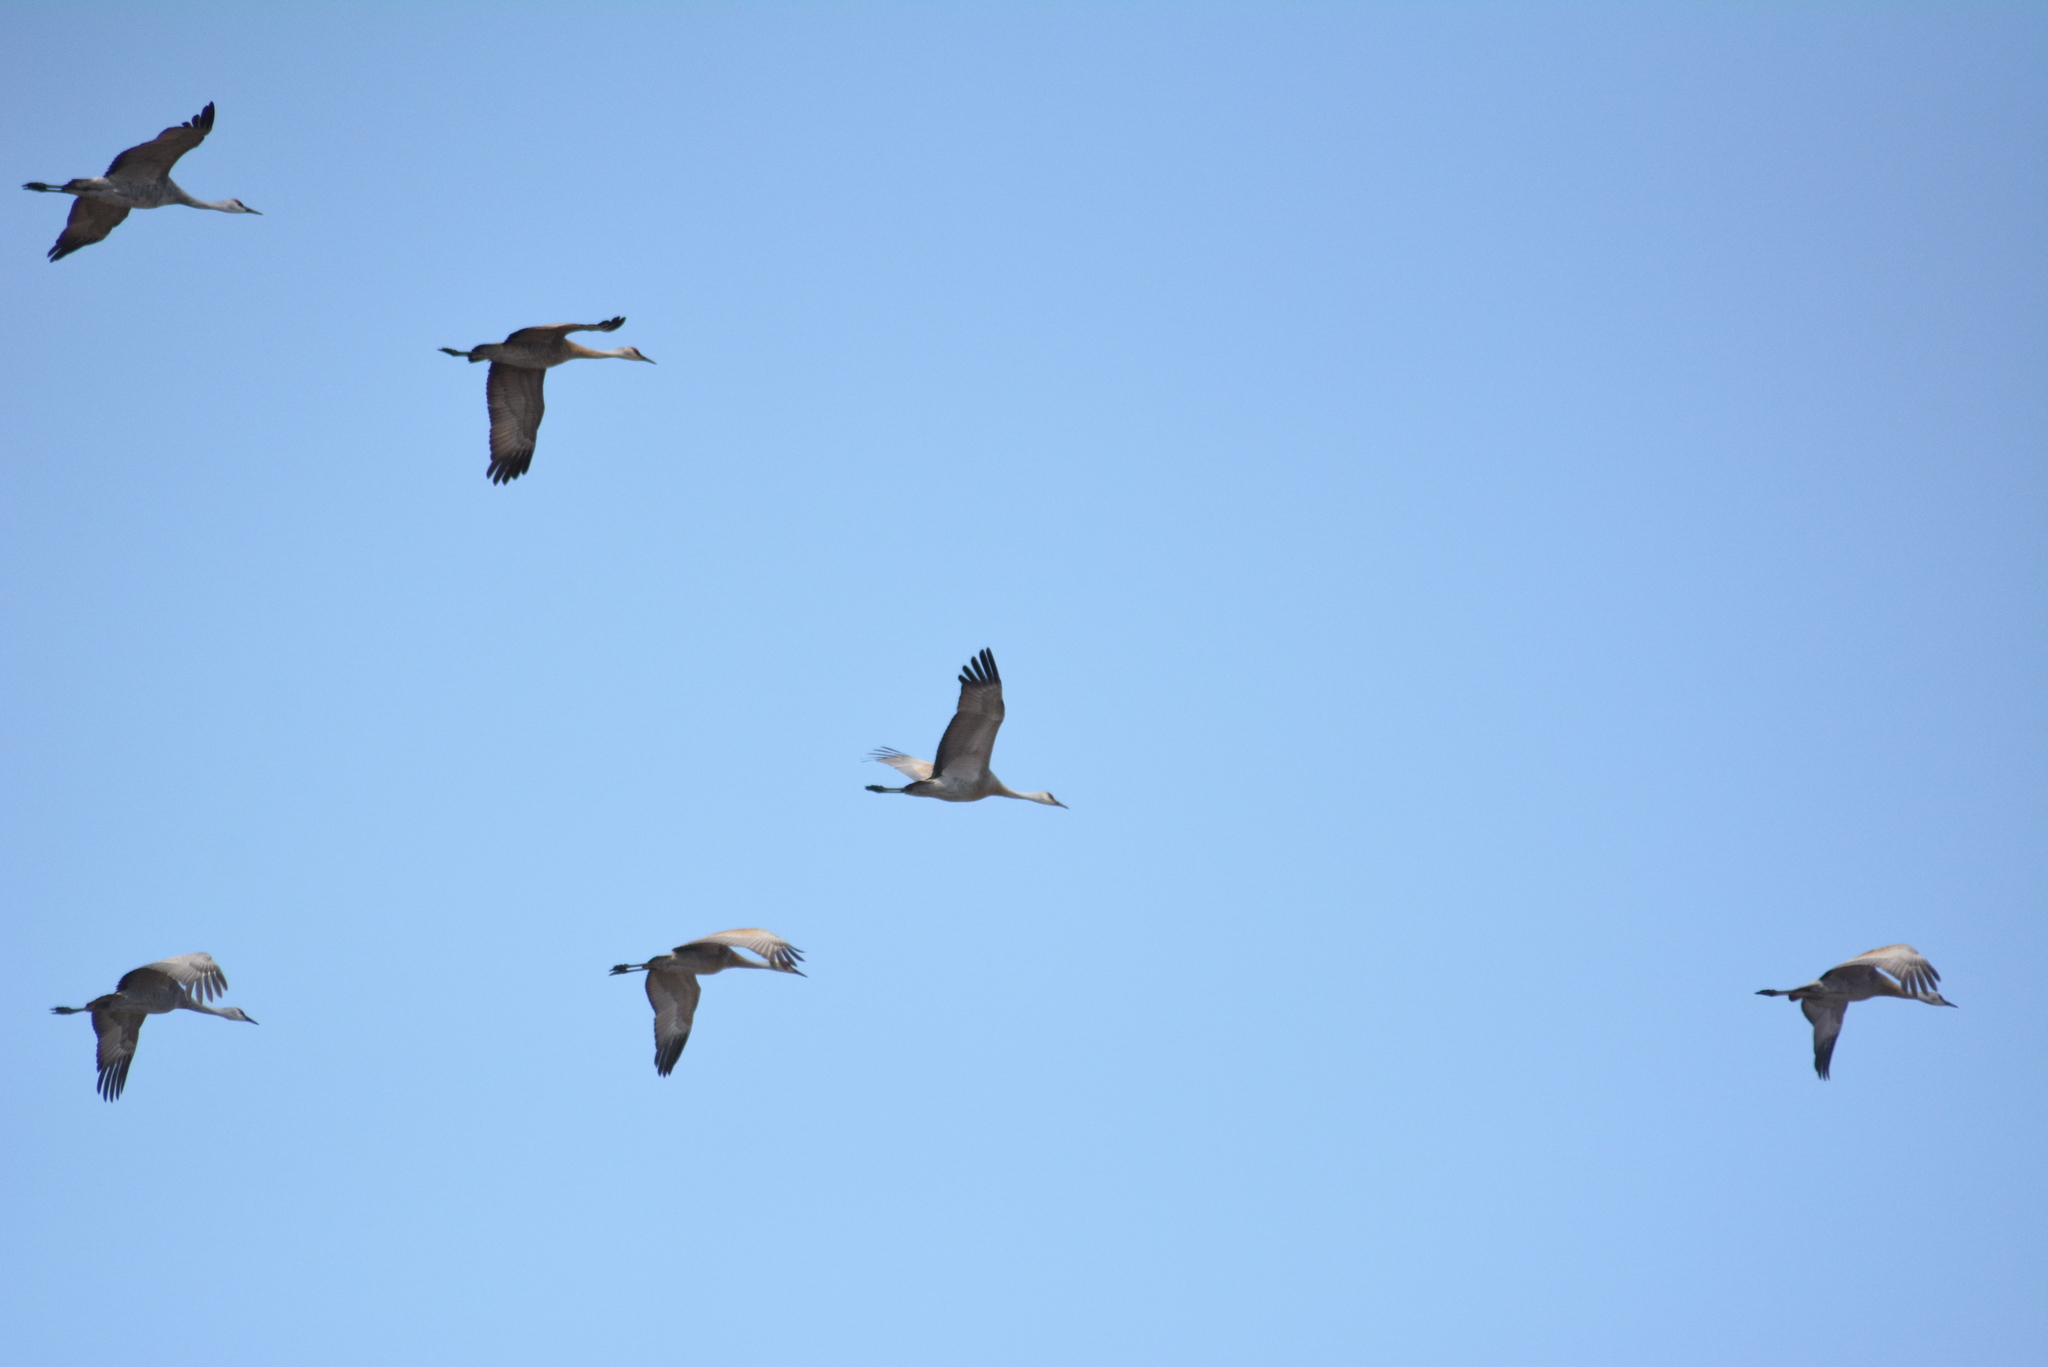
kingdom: Animalia
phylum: Chordata
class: Aves
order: Gruiformes
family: Gruidae
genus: Grus
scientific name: Grus canadensis
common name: Sandhill crane
